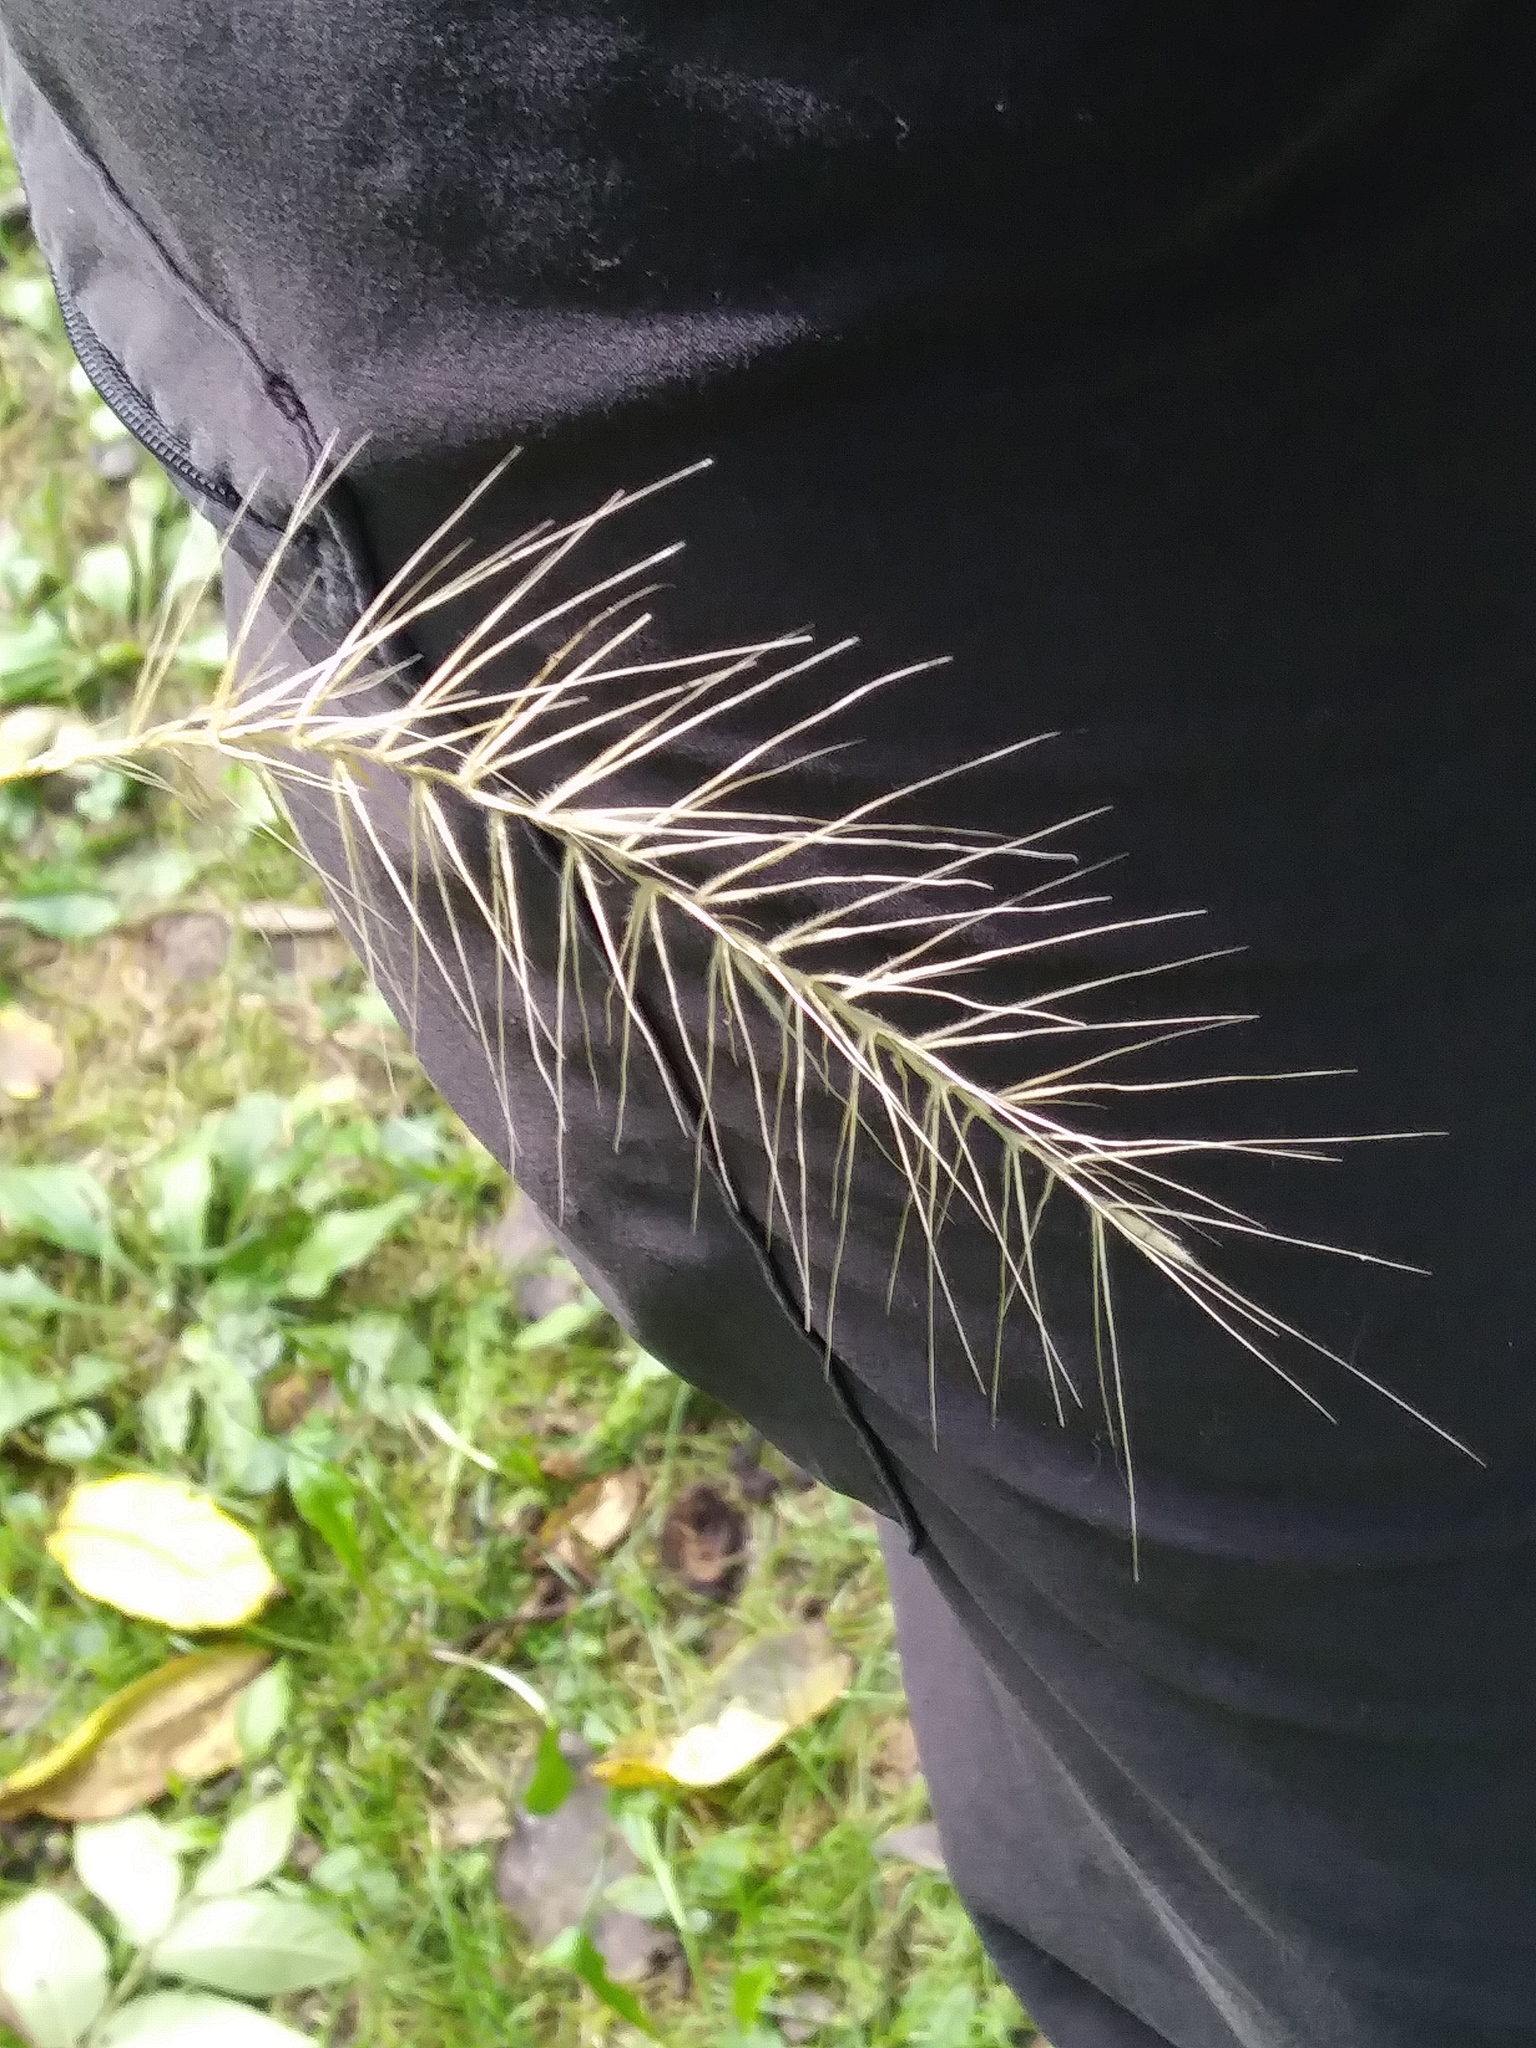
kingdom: Plantae
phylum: Tracheophyta
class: Liliopsida
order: Poales
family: Poaceae
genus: Elymus
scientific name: Elymus hystrix
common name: Bottlebrush grass
